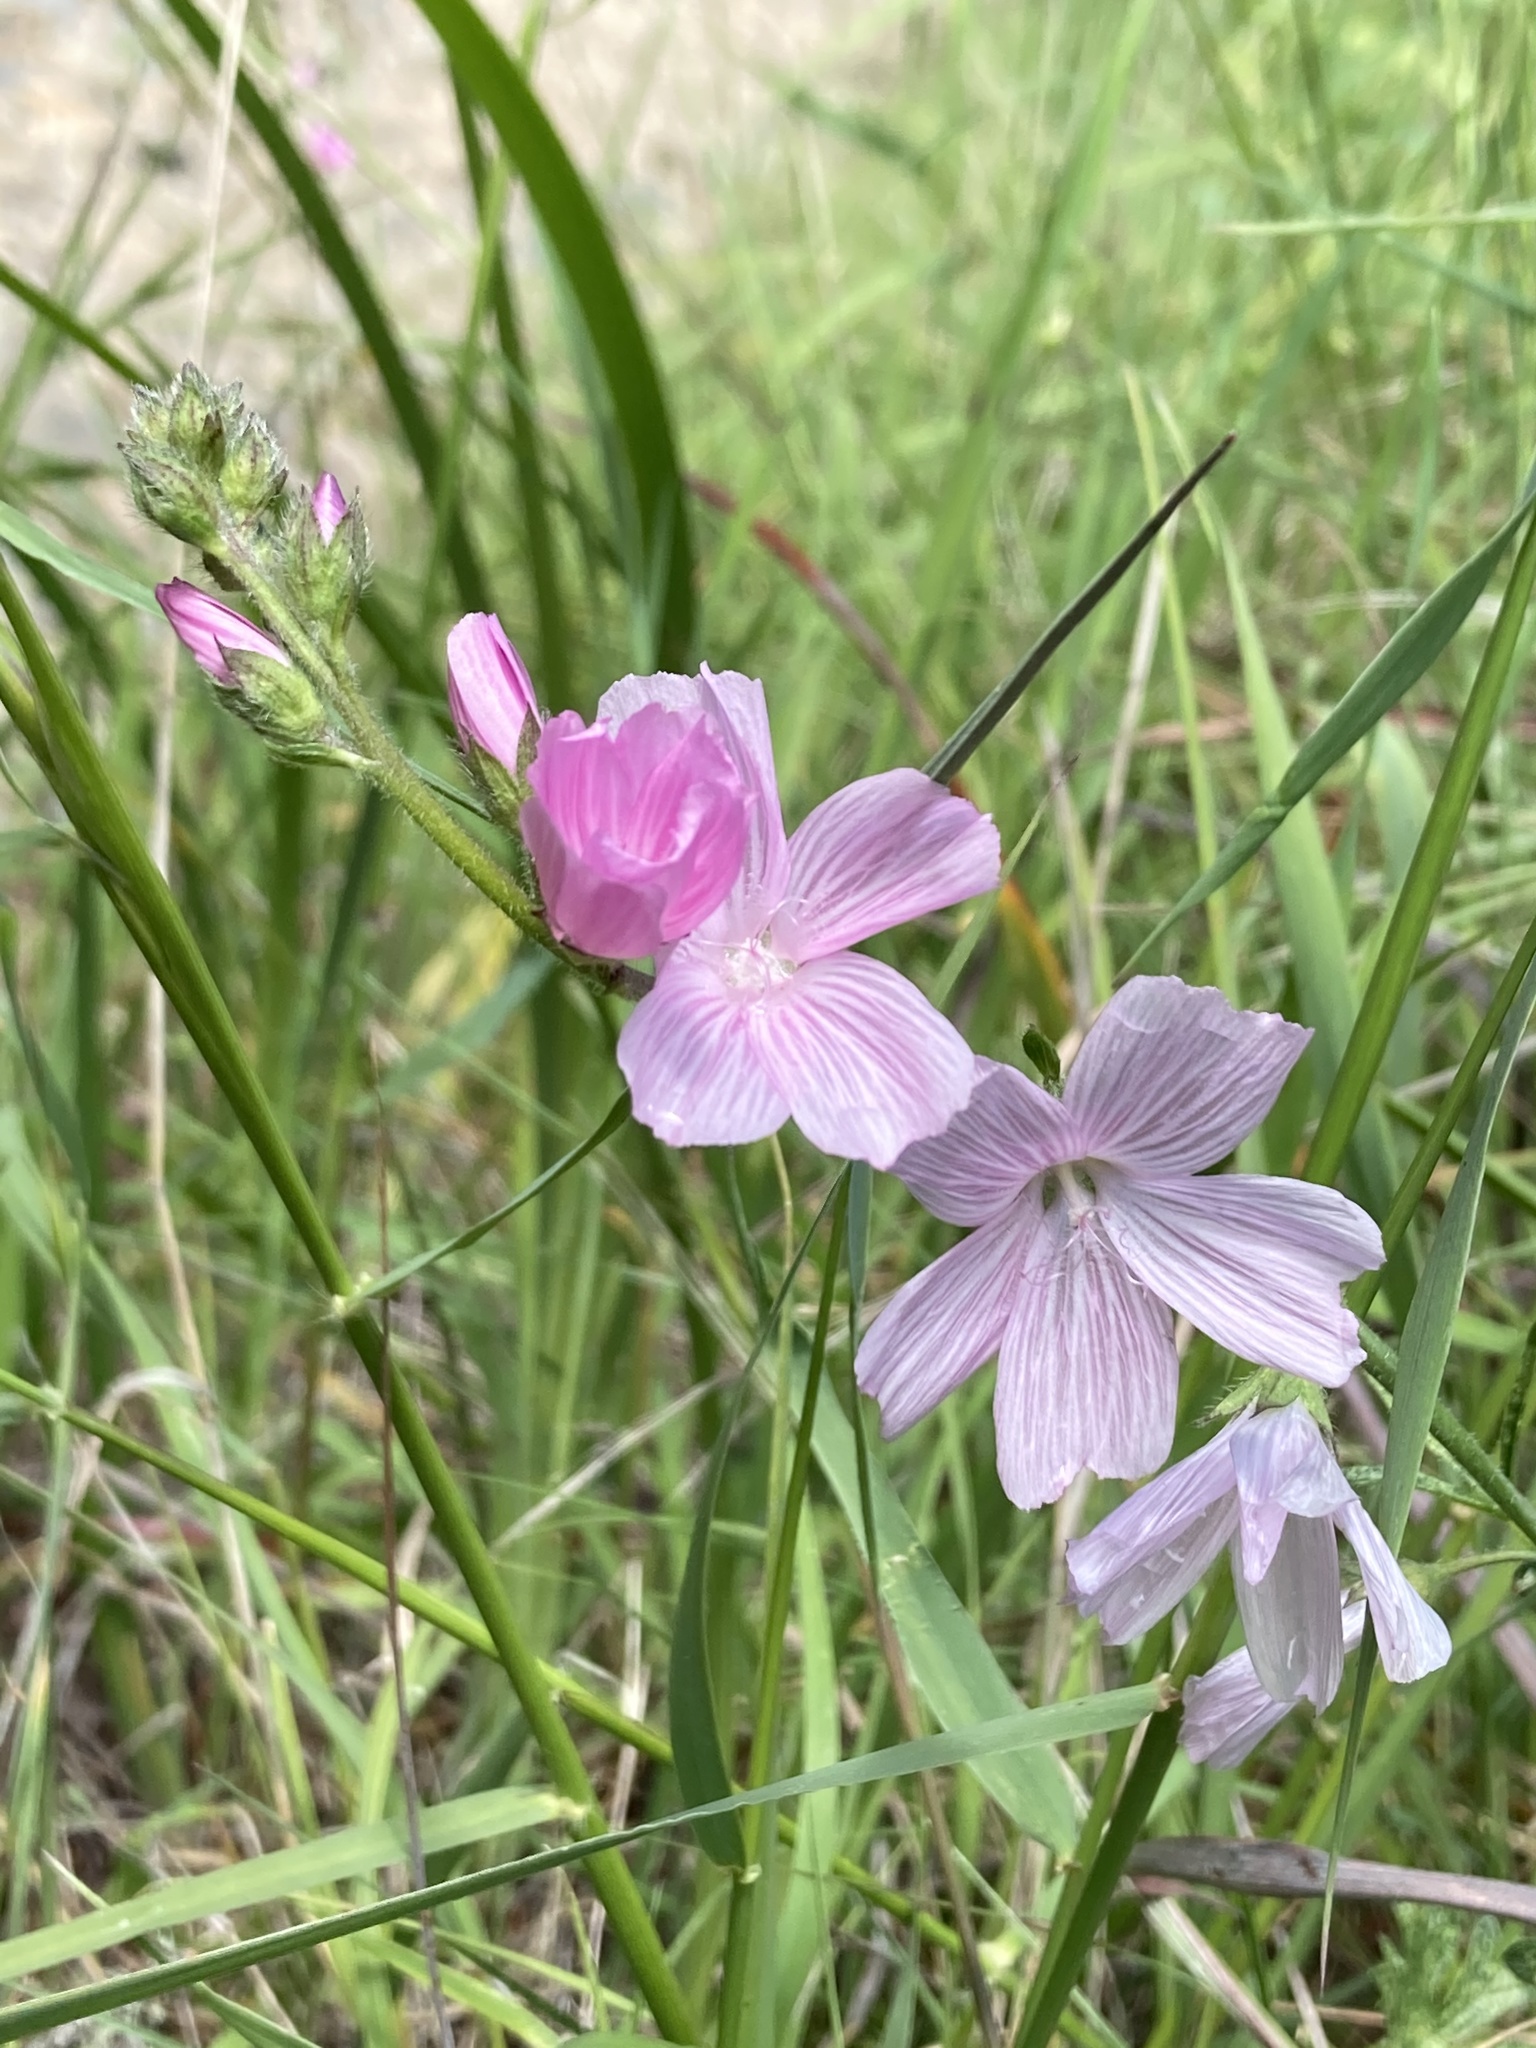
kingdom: Plantae
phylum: Tracheophyta
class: Magnoliopsida
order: Malvales
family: Malvaceae
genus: Sidalcea
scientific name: Sidalcea malviflora
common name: Greek mallow
